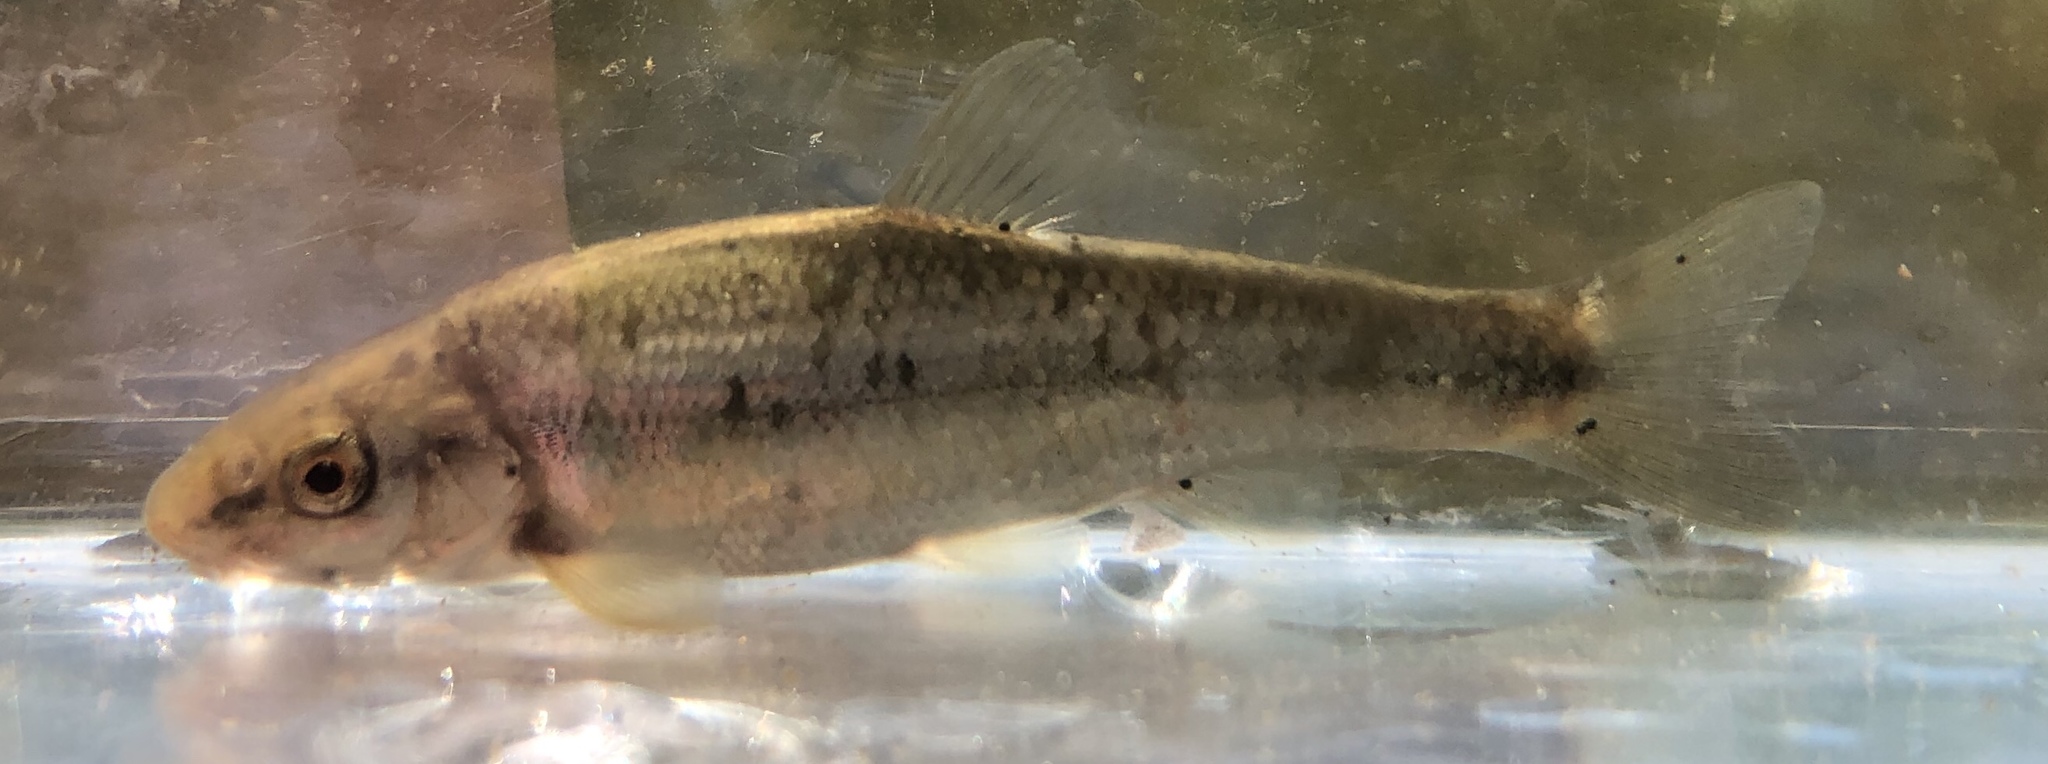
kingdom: Animalia
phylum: Chordata
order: Cypriniformes
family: Cyprinidae
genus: Campostoma
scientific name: Campostoma anomalum
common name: Central stoneroller
